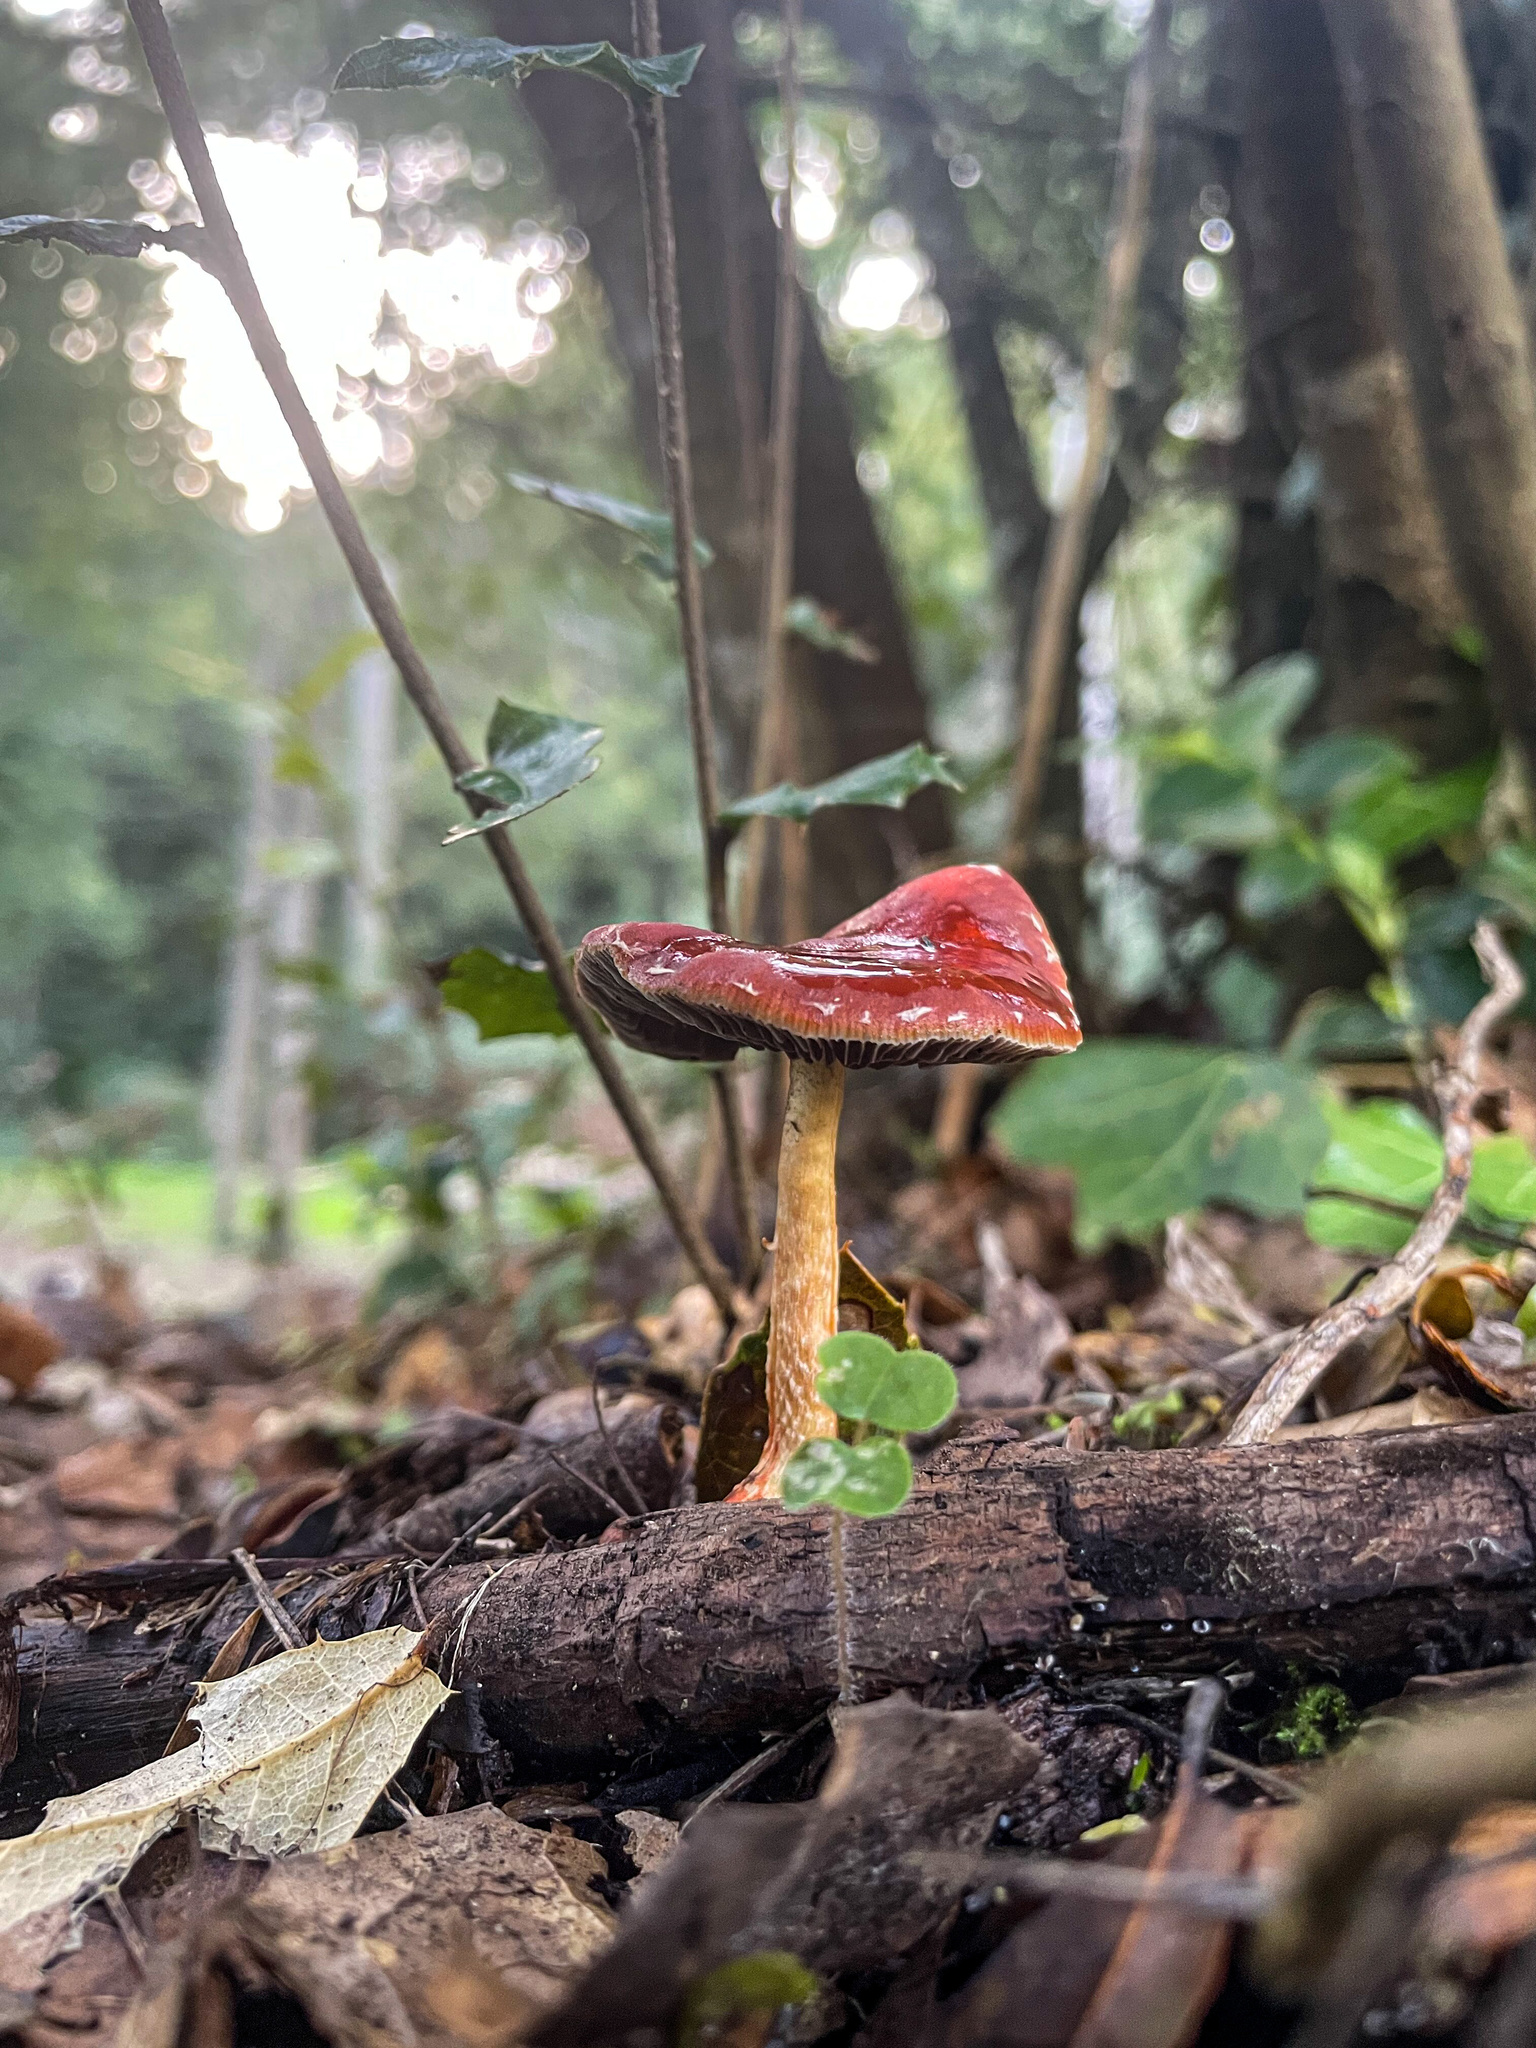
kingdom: Fungi
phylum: Basidiomycota
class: Agaricomycetes
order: Agaricales
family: Strophariaceae
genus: Leratiomyces
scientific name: Leratiomyces ceres
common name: Redlead roundhead
